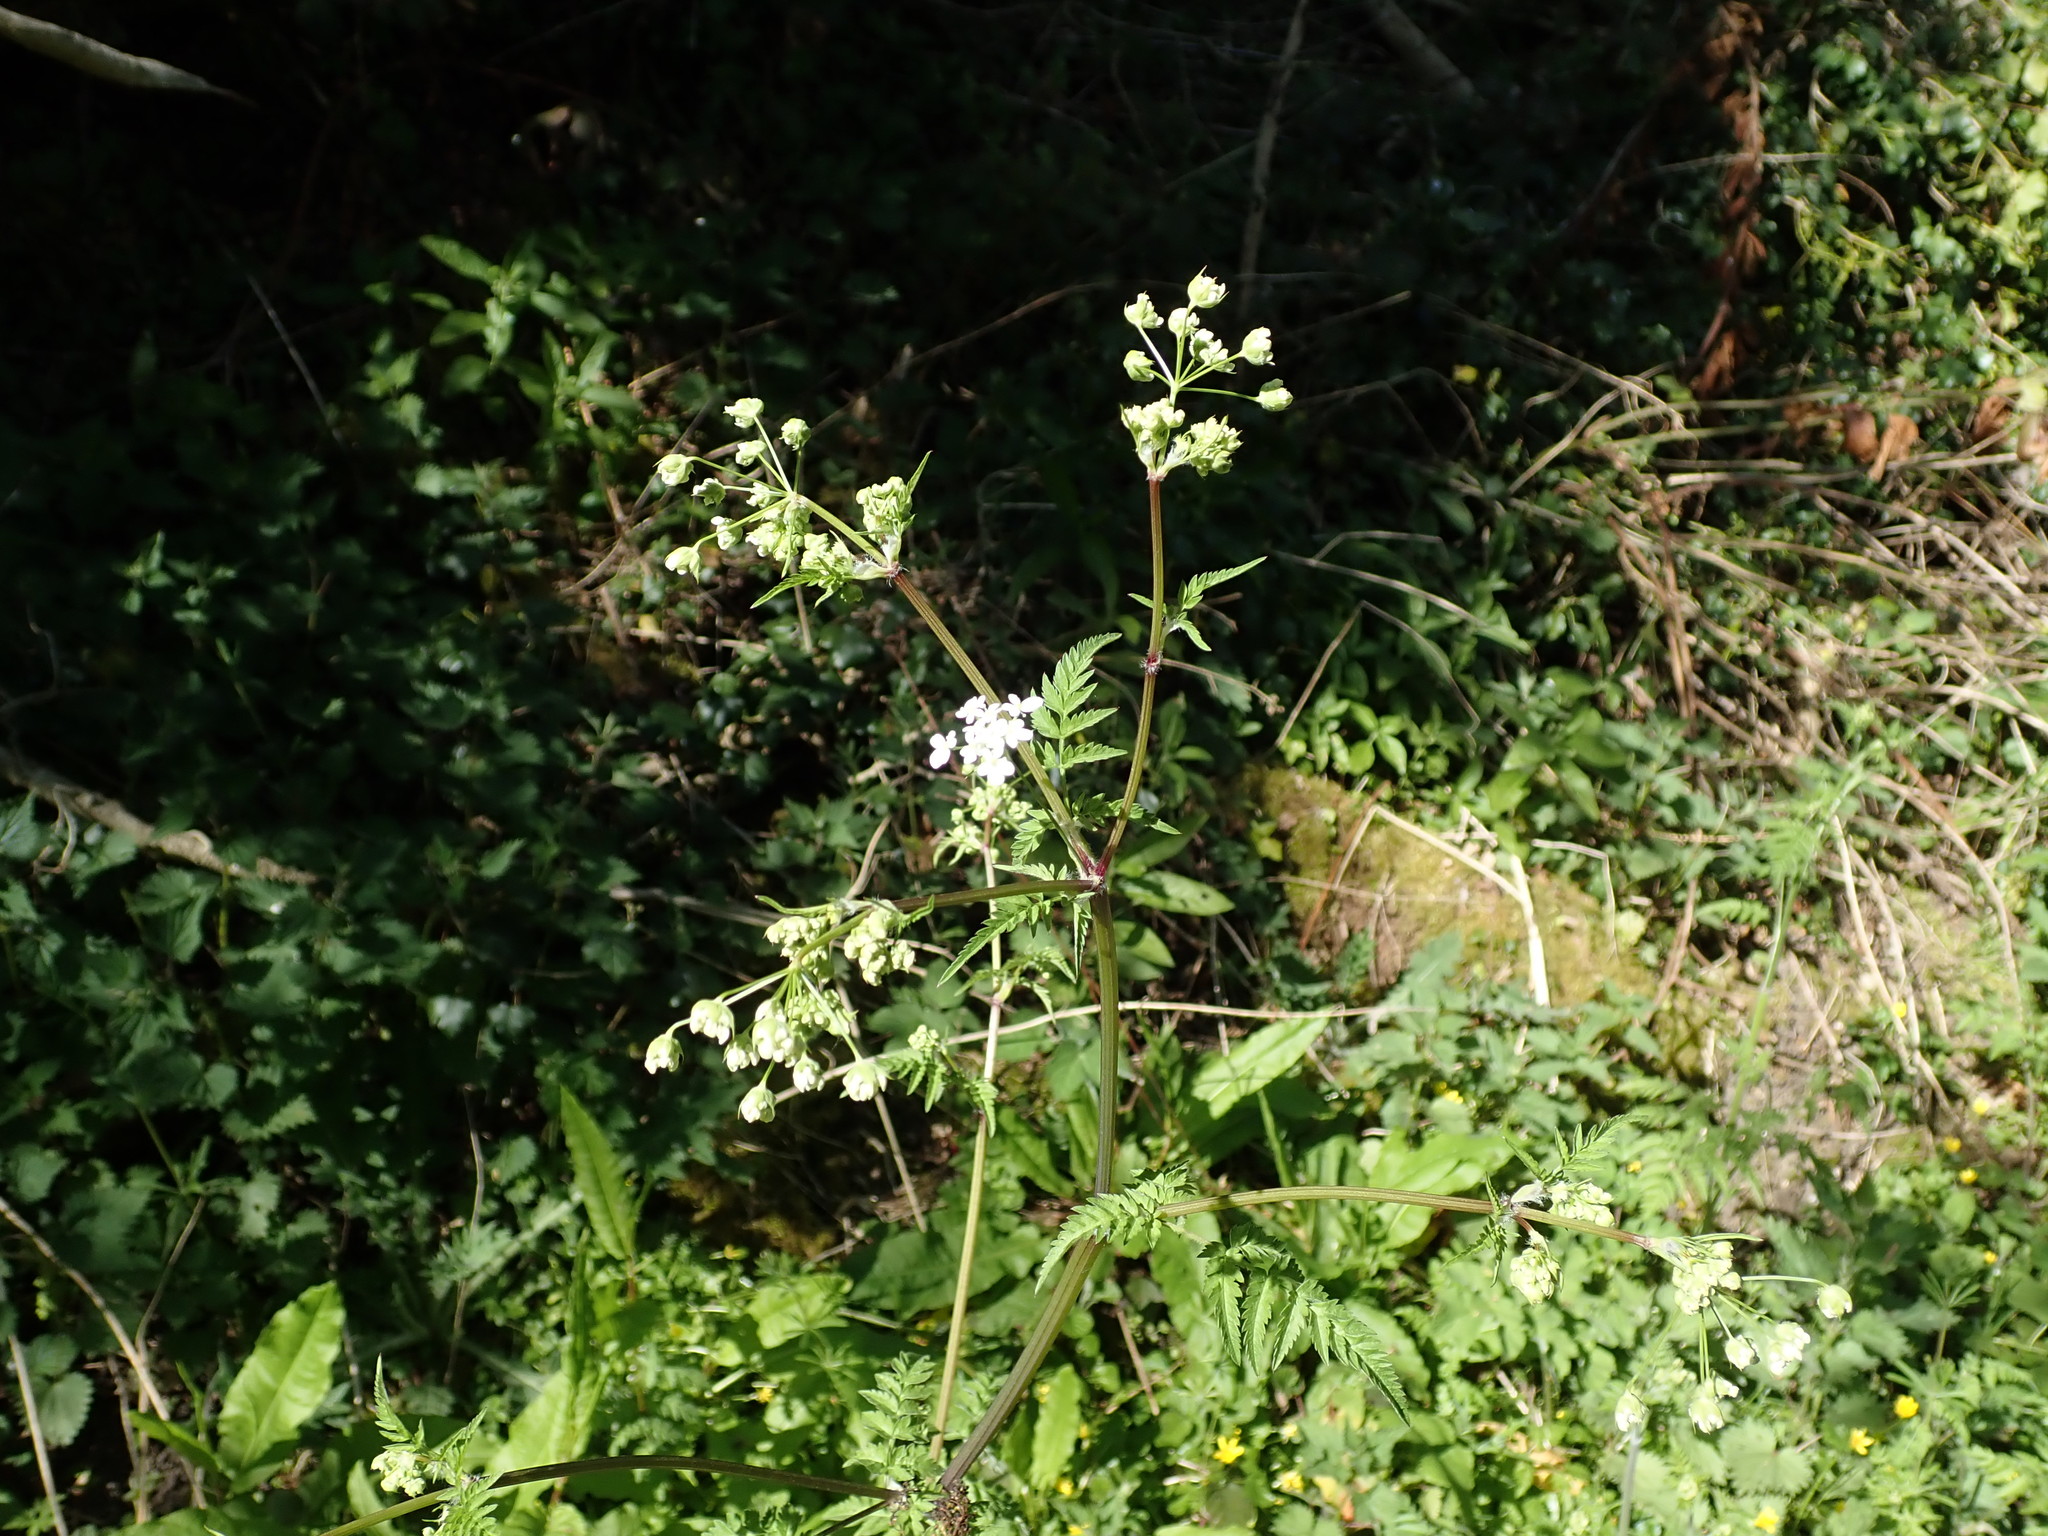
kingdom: Plantae
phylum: Tracheophyta
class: Magnoliopsida
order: Apiales
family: Apiaceae
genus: Anthriscus
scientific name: Anthriscus sylvestris
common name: Cow parsley
